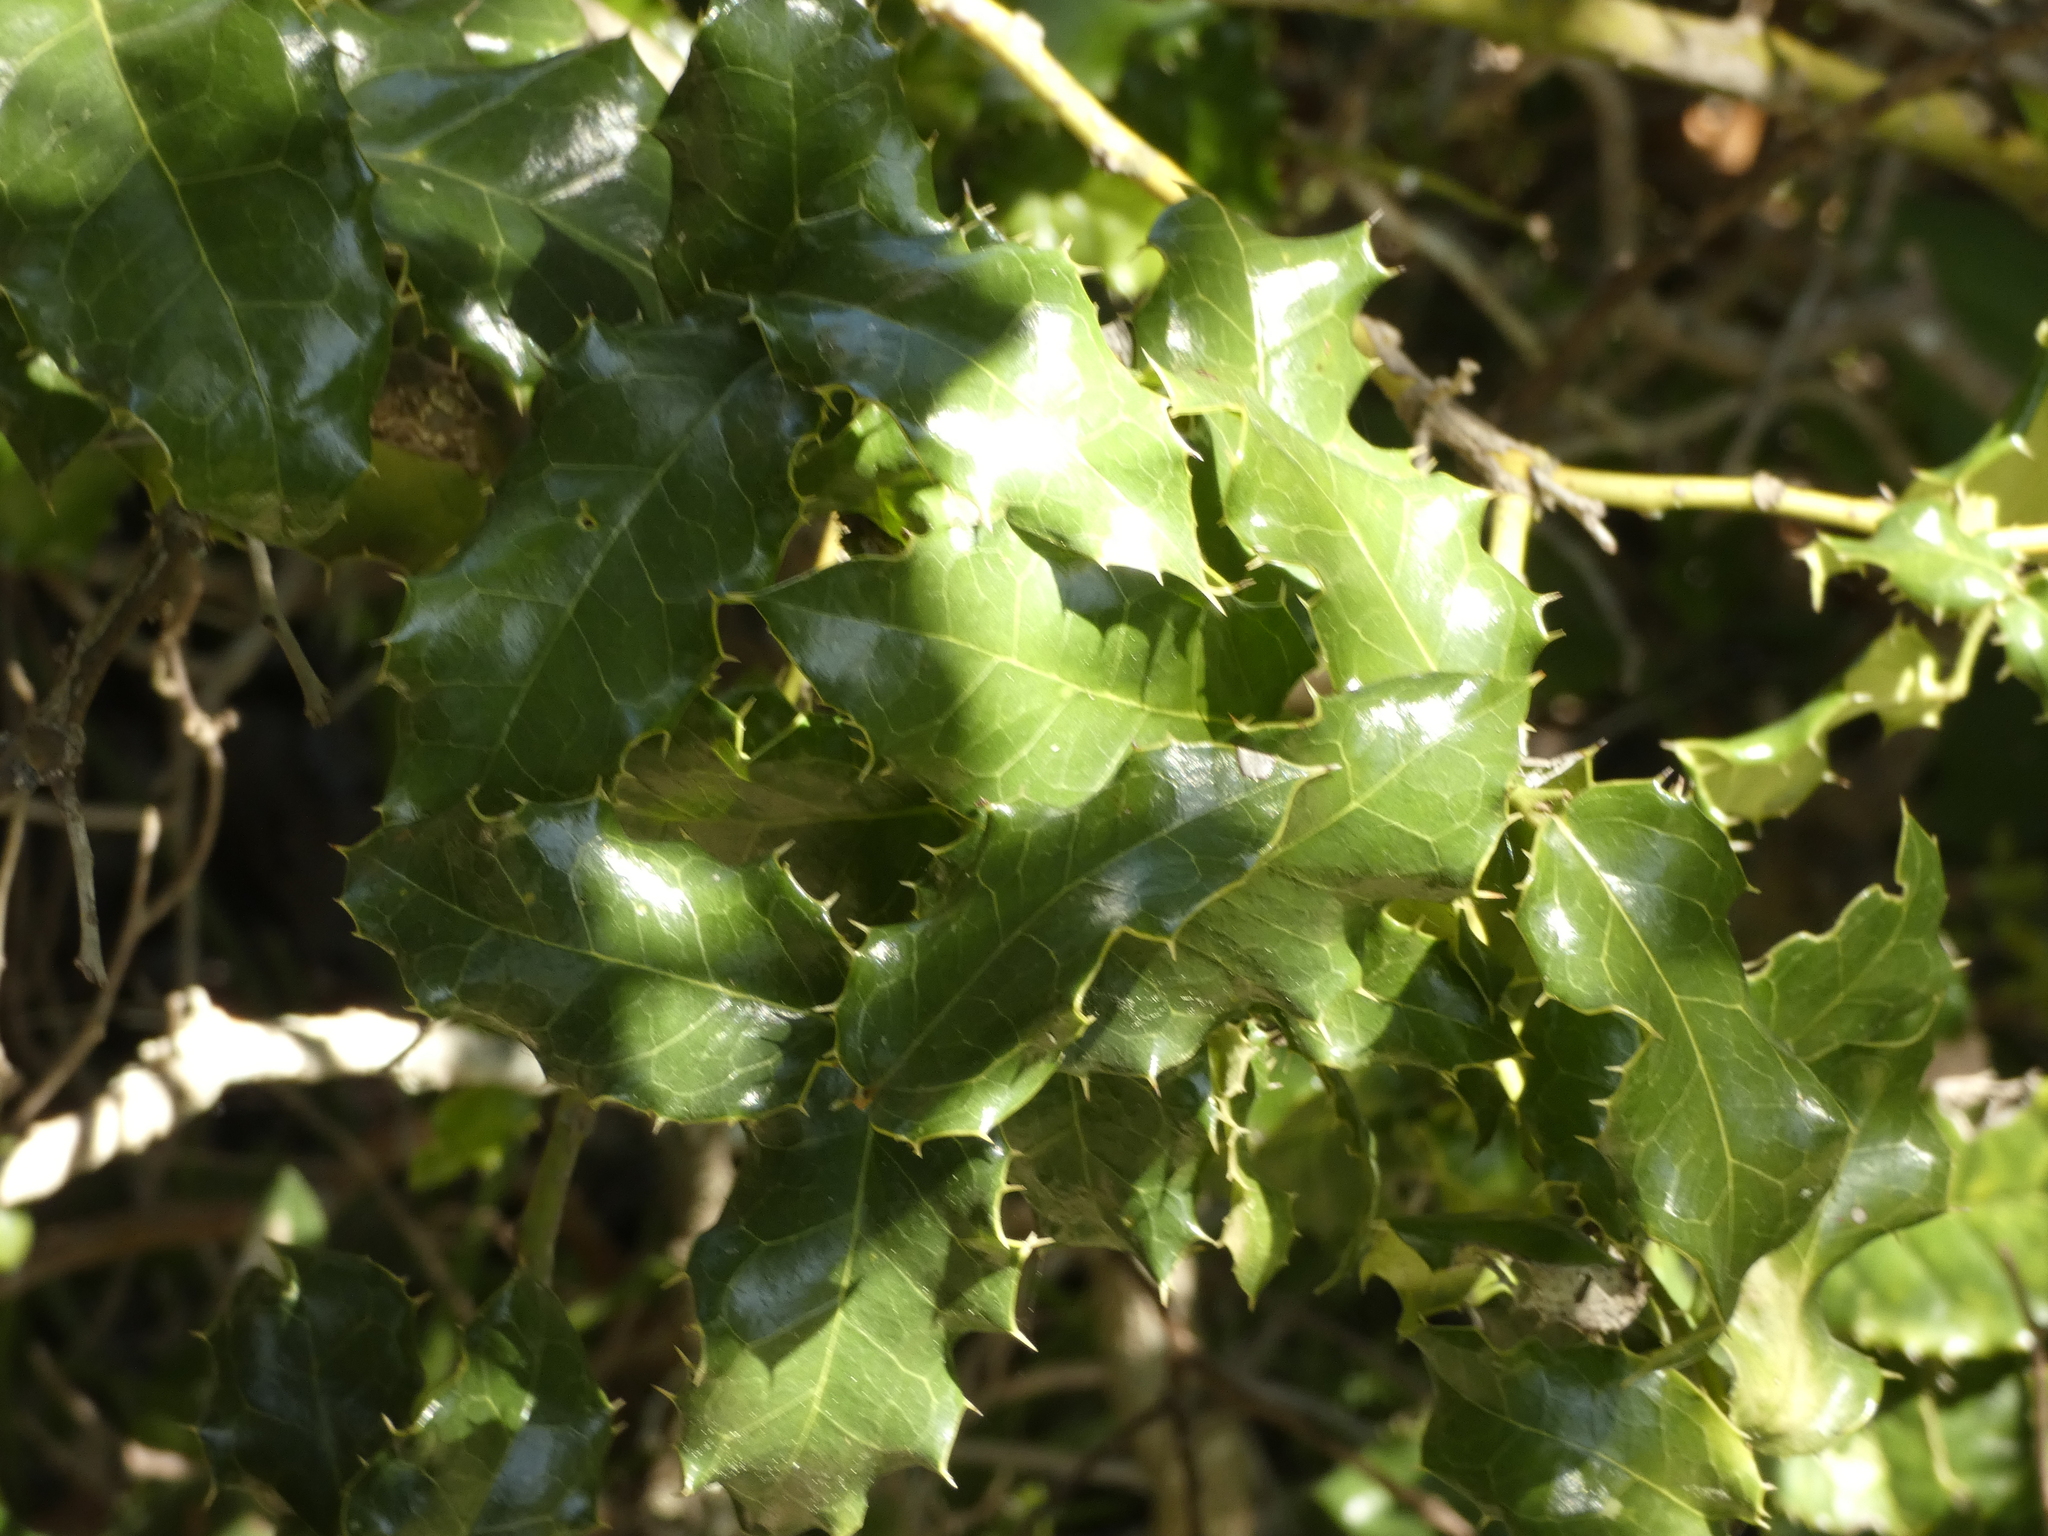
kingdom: Plantae
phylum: Tracheophyta
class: Magnoliopsida
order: Cardiopteridales
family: Cardiopteridaceae
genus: Citronella
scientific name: Citronella mucronata
